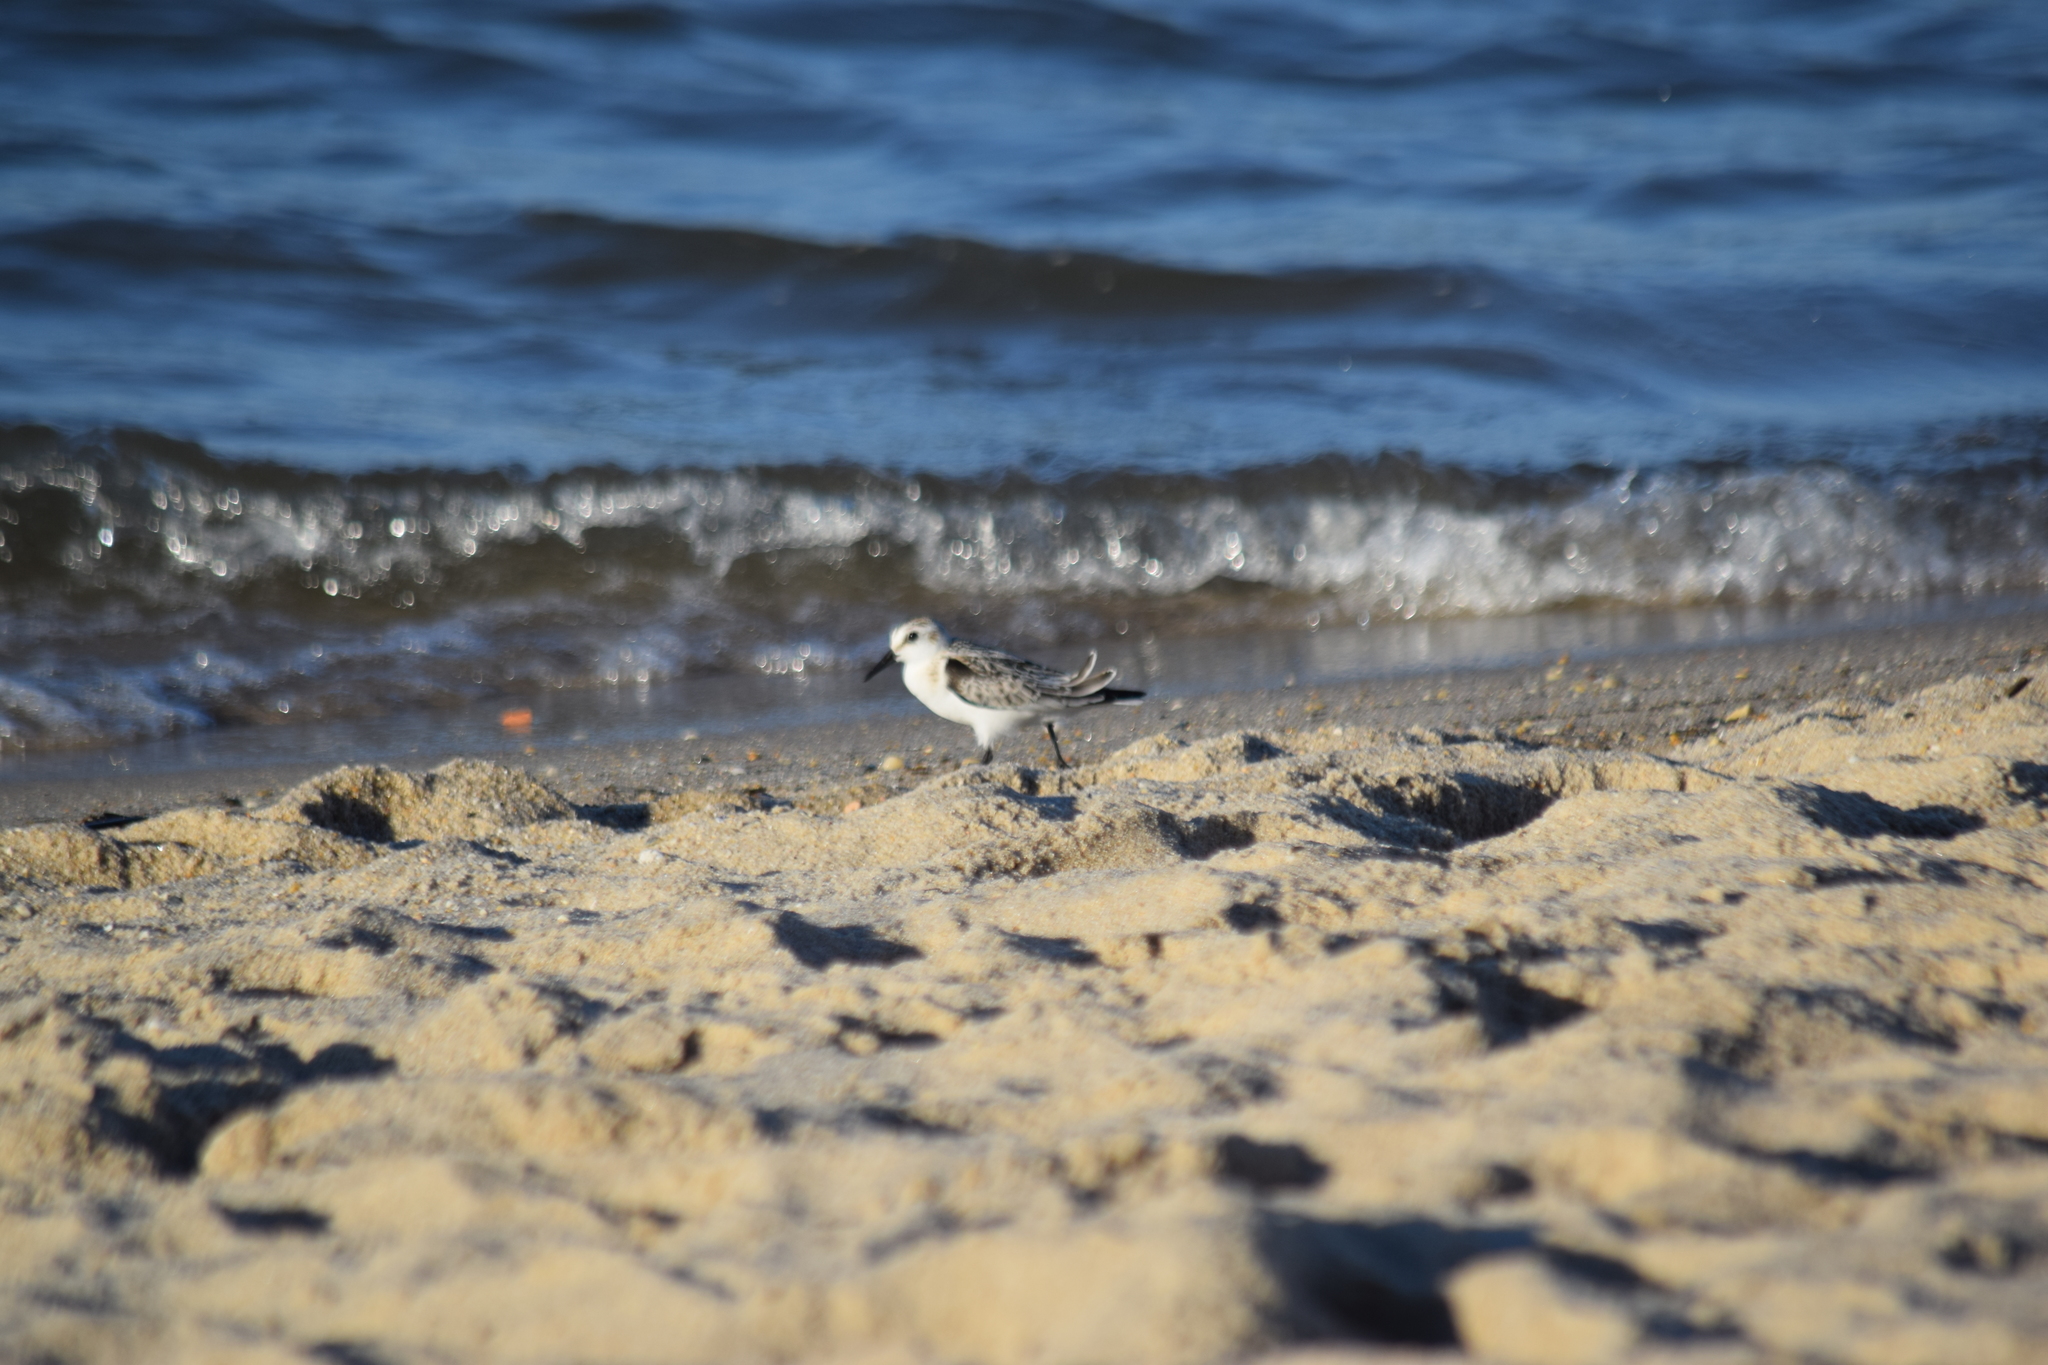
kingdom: Animalia
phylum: Chordata
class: Aves
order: Charadriiformes
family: Scolopacidae
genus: Calidris
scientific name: Calidris alba
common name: Sanderling
